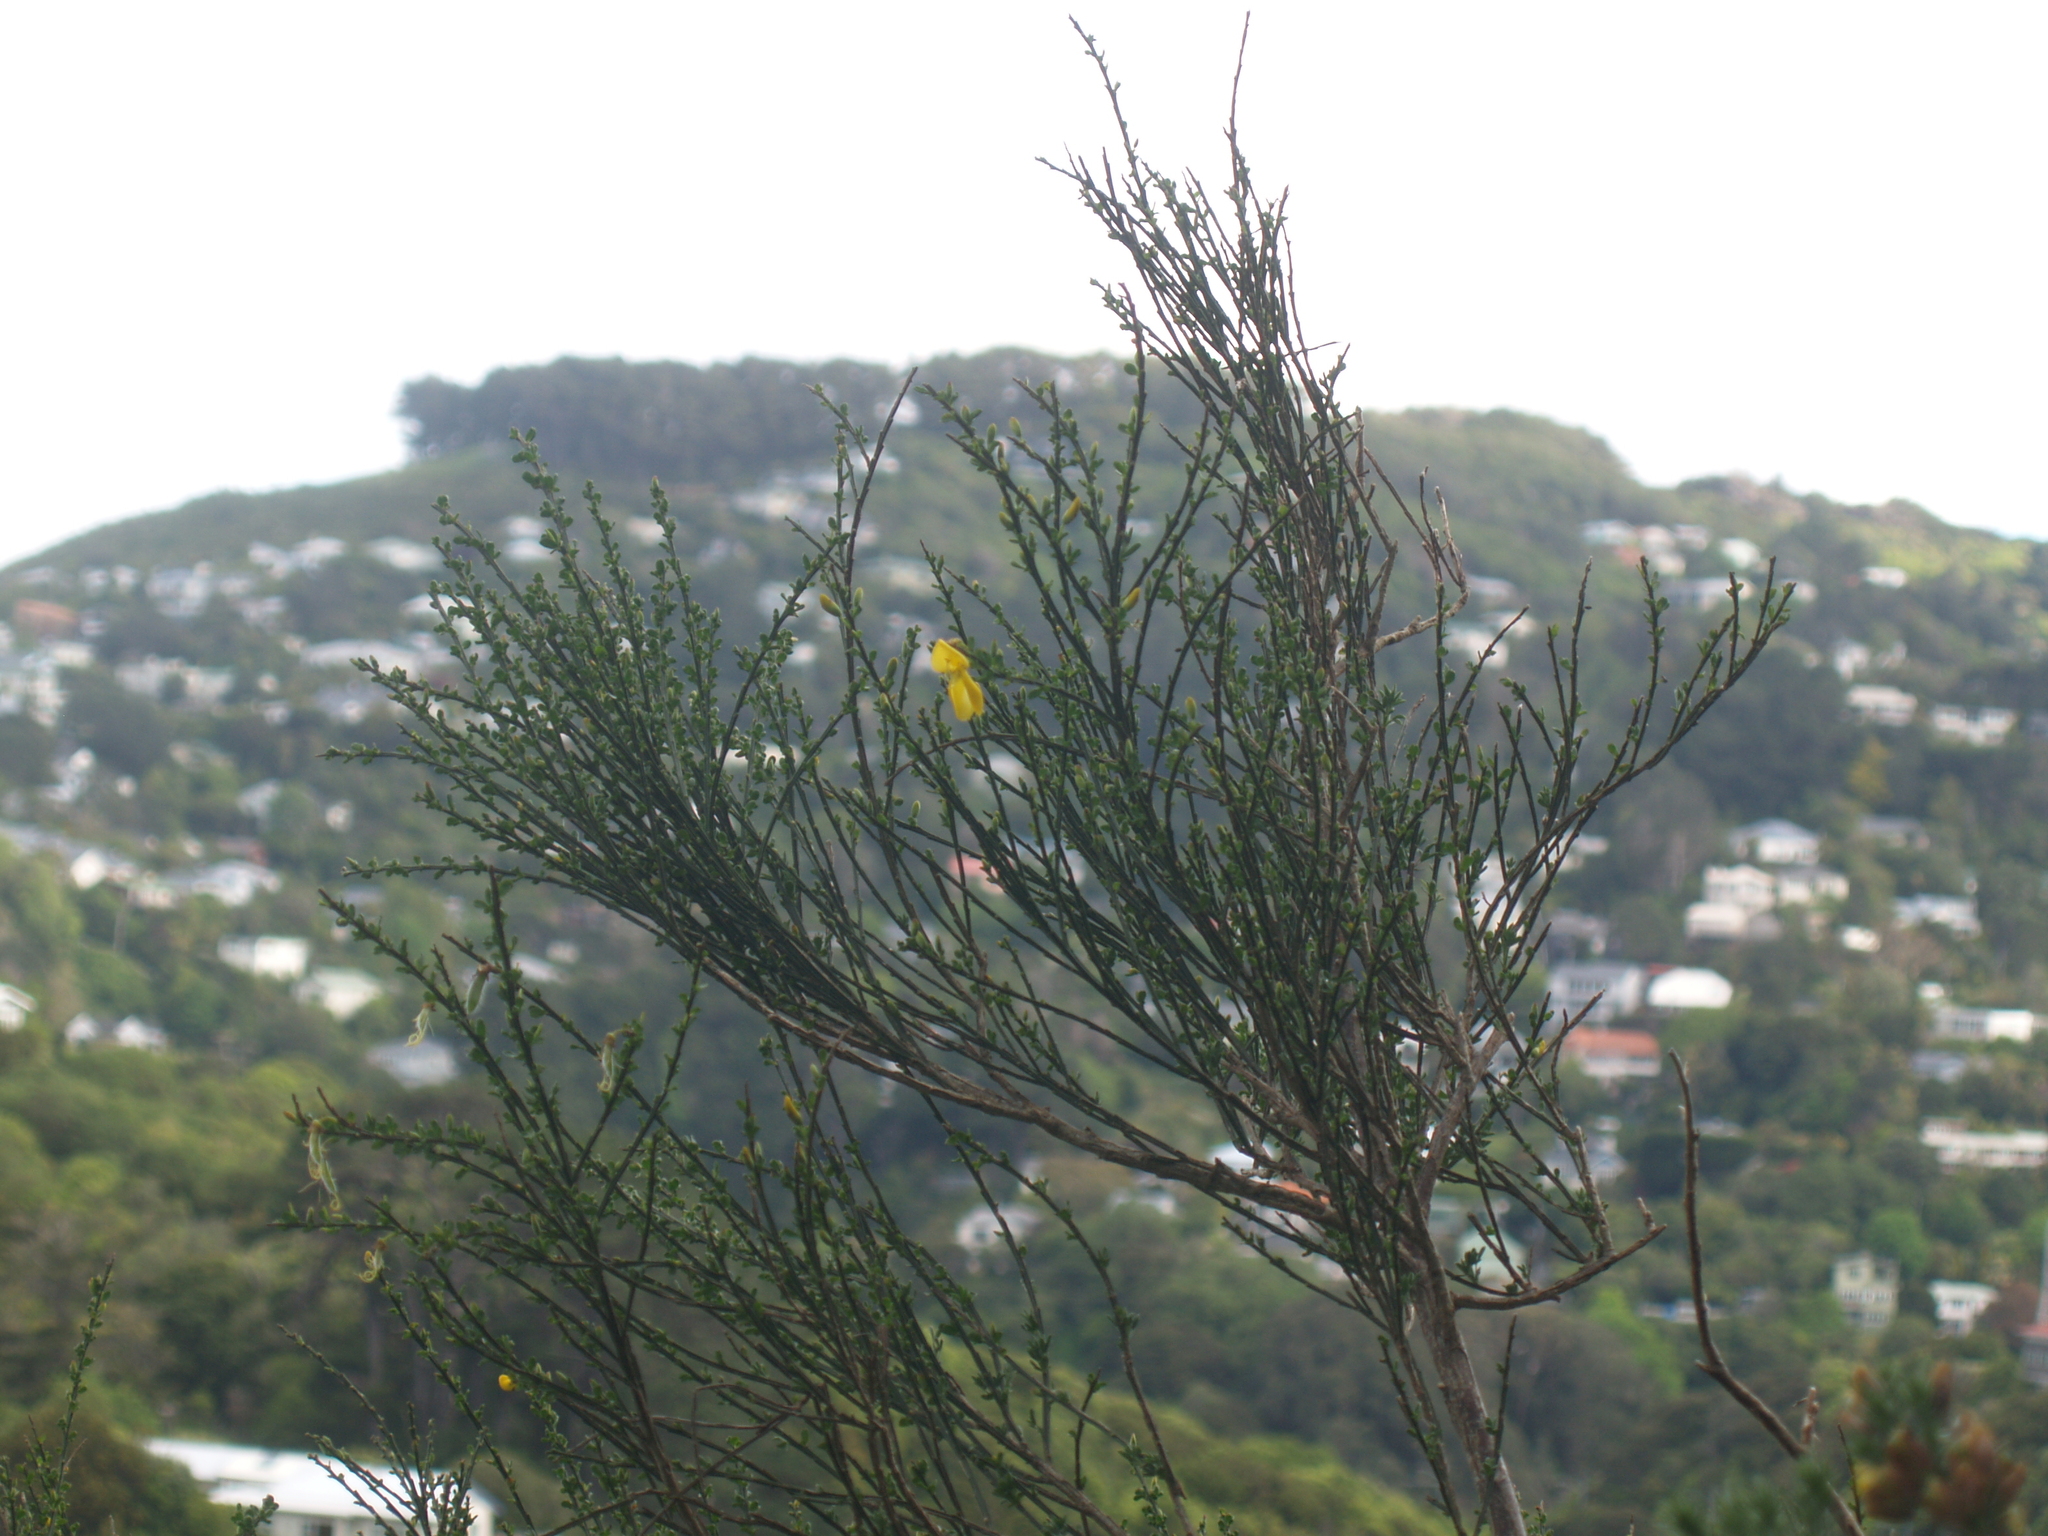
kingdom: Plantae
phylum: Tracheophyta
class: Magnoliopsida
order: Fabales
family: Fabaceae
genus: Cytisus
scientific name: Cytisus scoparius
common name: Scotch broom
